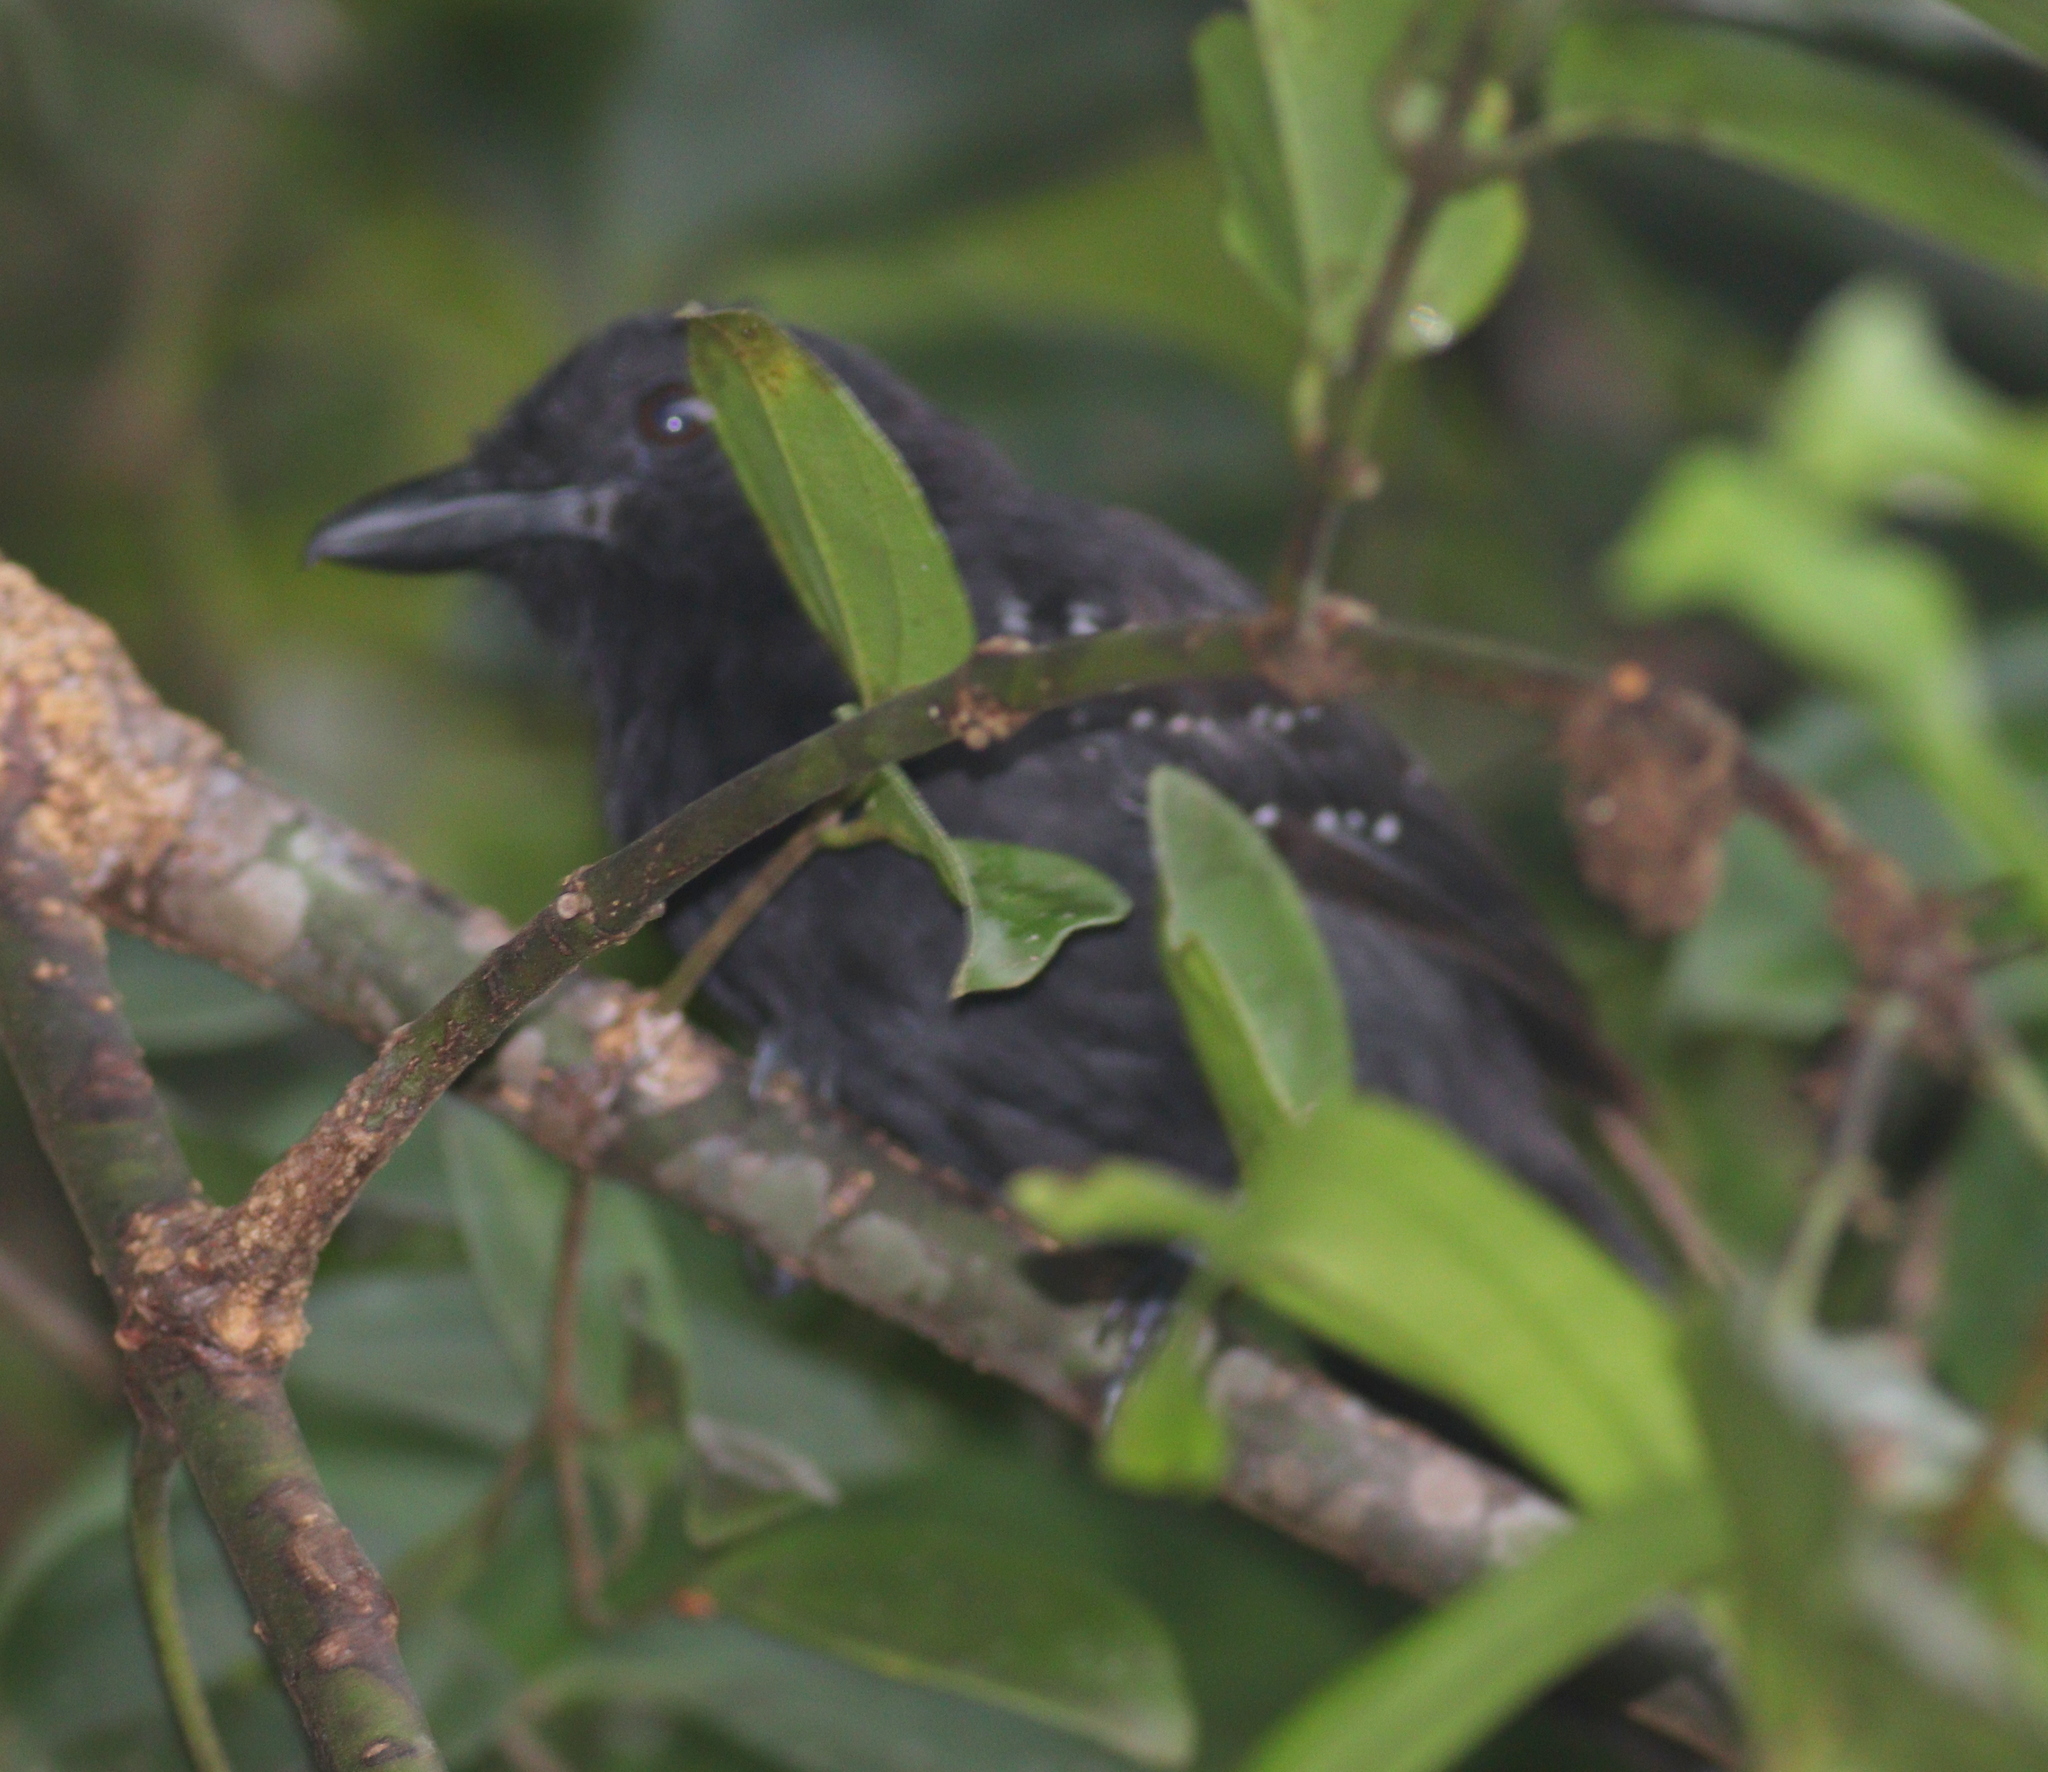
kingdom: Animalia
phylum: Chordata
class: Aves
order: Passeriformes
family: Thamnophilidae
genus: Thamnophilus
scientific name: Thamnophilus bridgesi
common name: Black-hooded antshrike
